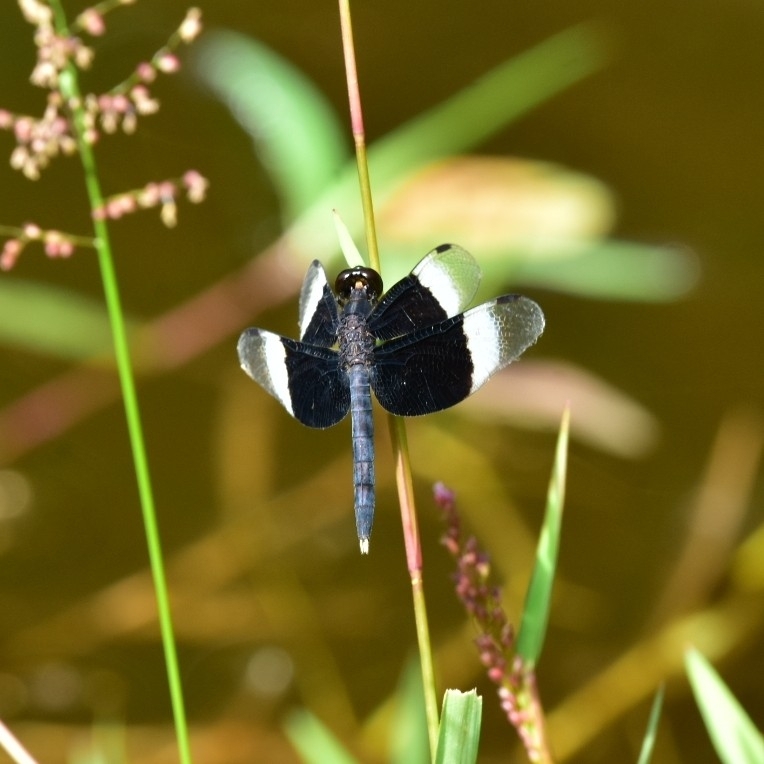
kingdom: Animalia
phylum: Arthropoda
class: Insecta
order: Odonata
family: Libellulidae
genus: Neurothemis
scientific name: Neurothemis tullia
